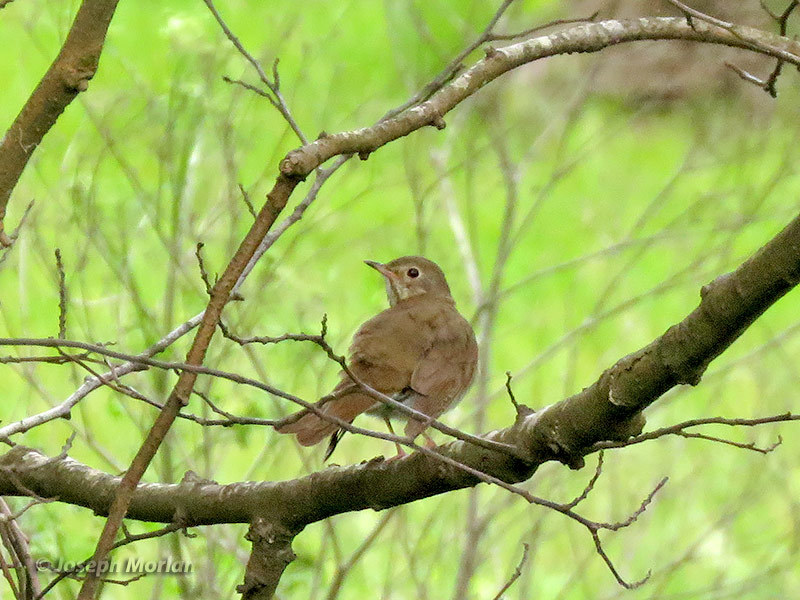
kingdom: Animalia
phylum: Chordata
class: Aves
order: Passeriformes
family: Turdidae
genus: Catharus
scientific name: Catharus ustulatus
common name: Swainson's thrush
